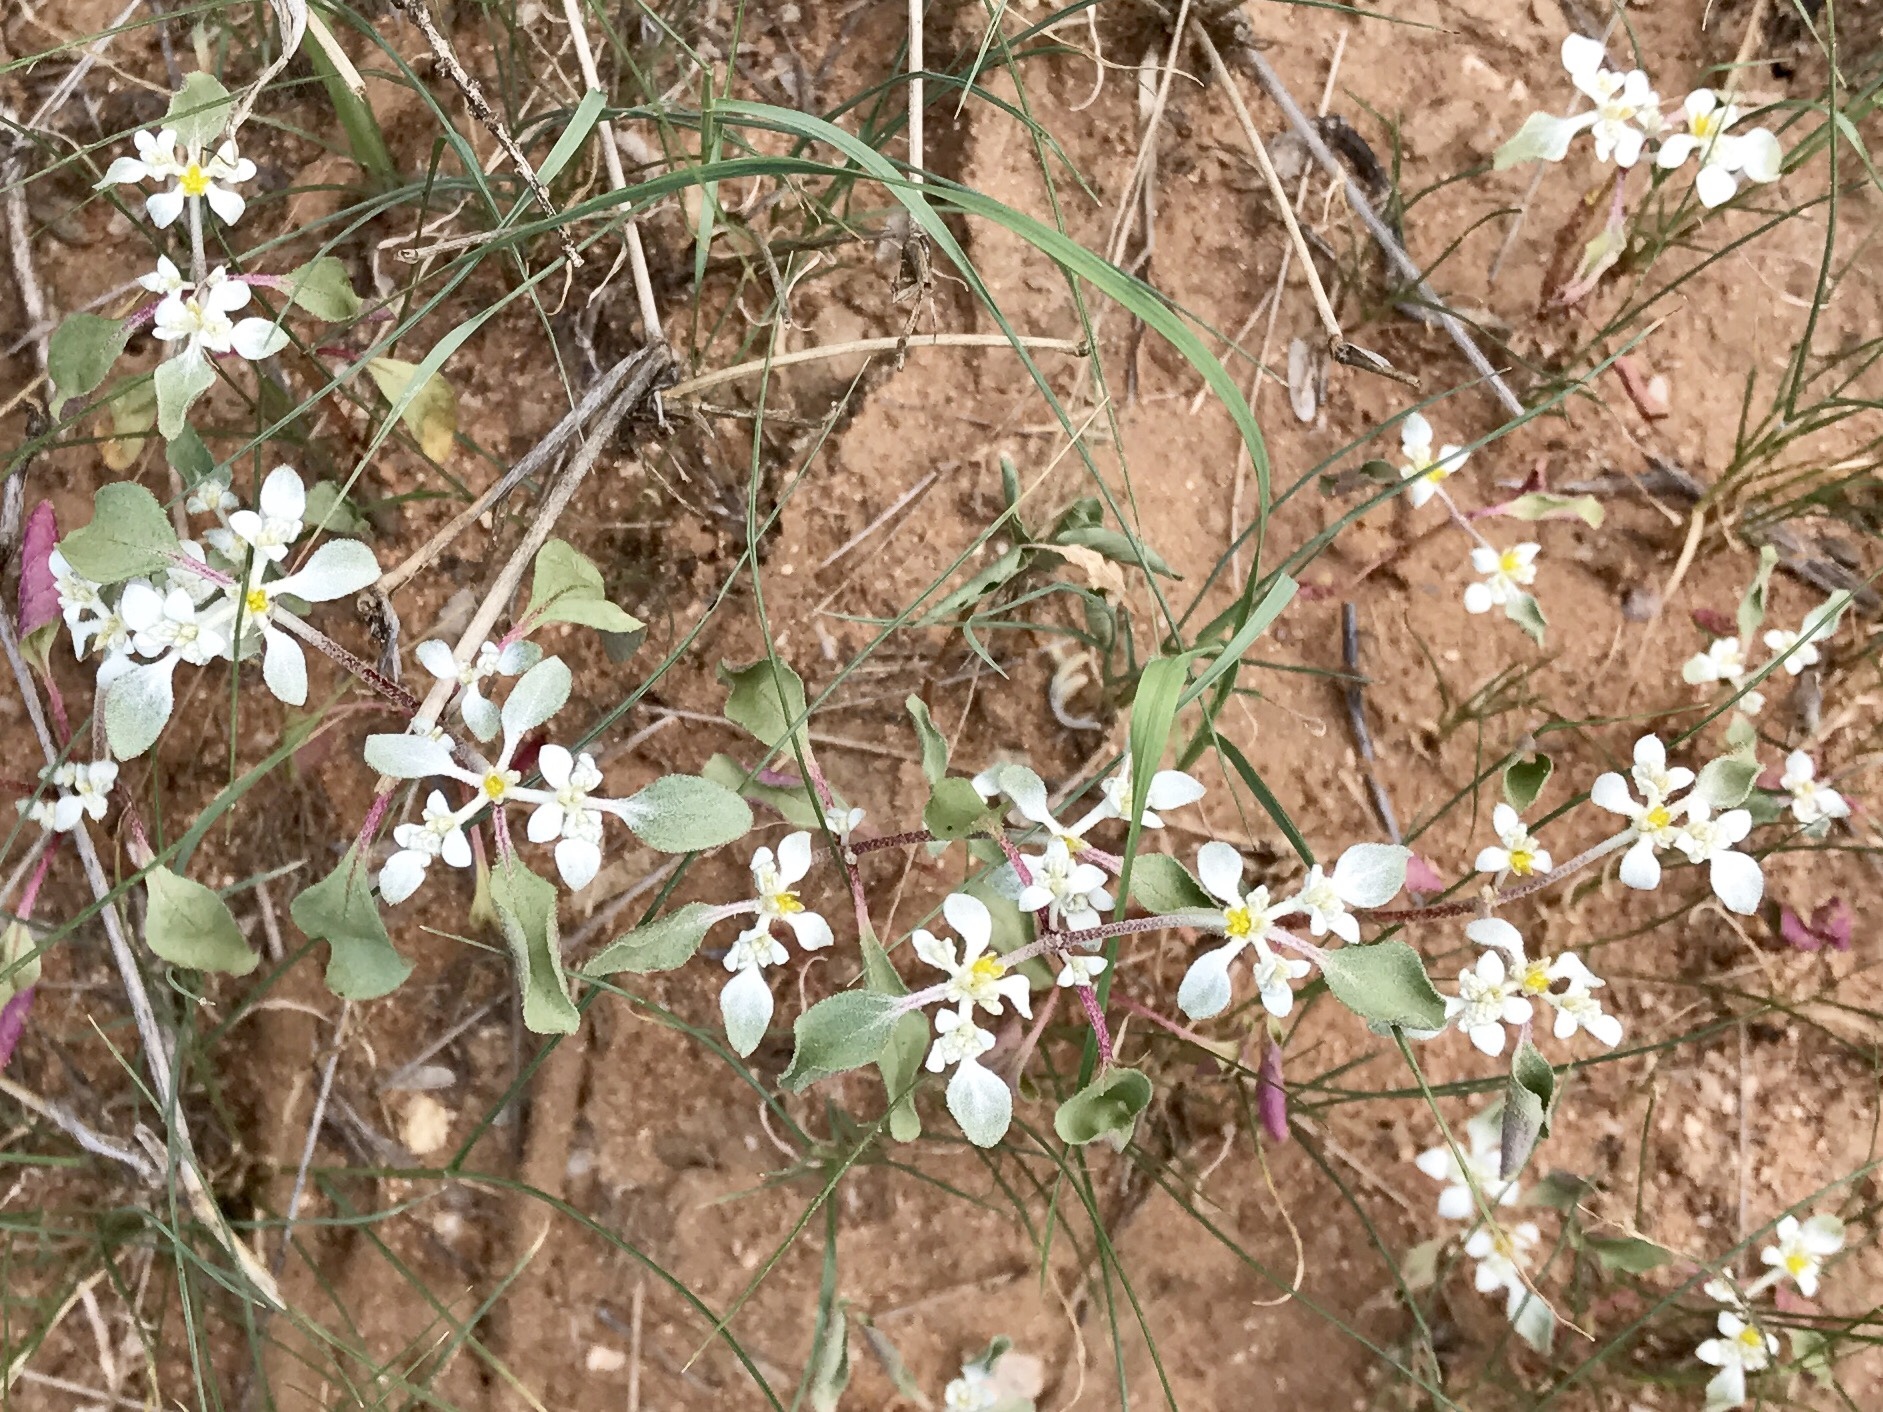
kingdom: Plantae
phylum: Tracheophyta
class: Magnoliopsida
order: Caryophyllales
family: Amaranthaceae
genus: Tidestromia
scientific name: Tidestromia lanuginosa
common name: Woolly tidestromia
